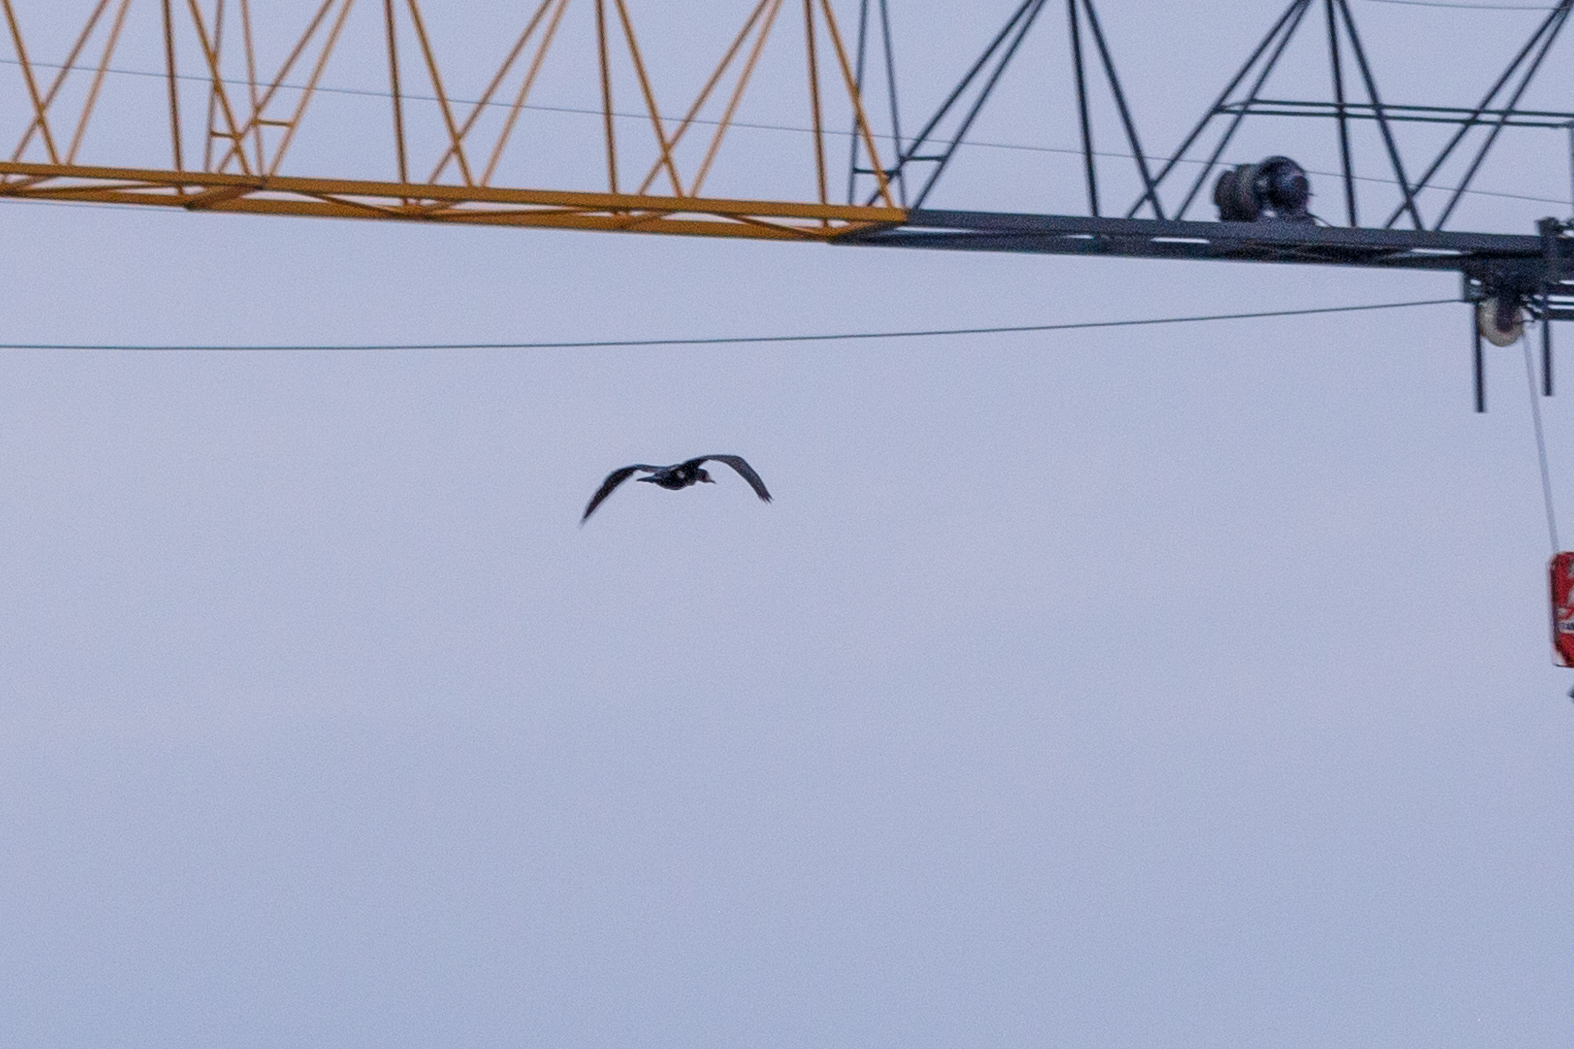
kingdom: Animalia
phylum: Chordata
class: Aves
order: Suliformes
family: Phalacrocoracidae
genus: Phalacrocorax
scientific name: Phalacrocorax carbo
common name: Great cormorant
